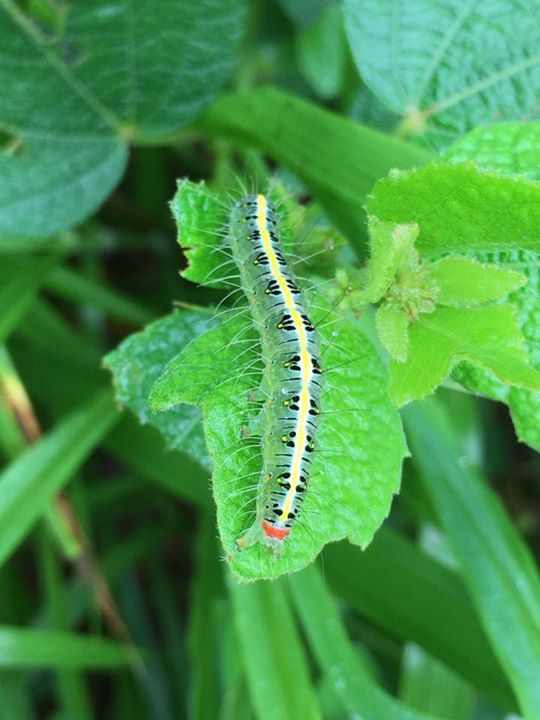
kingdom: Animalia
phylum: Arthropoda
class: Insecta
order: Lepidoptera
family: Nolidae
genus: Xanthodes
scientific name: Xanthodes transversa
